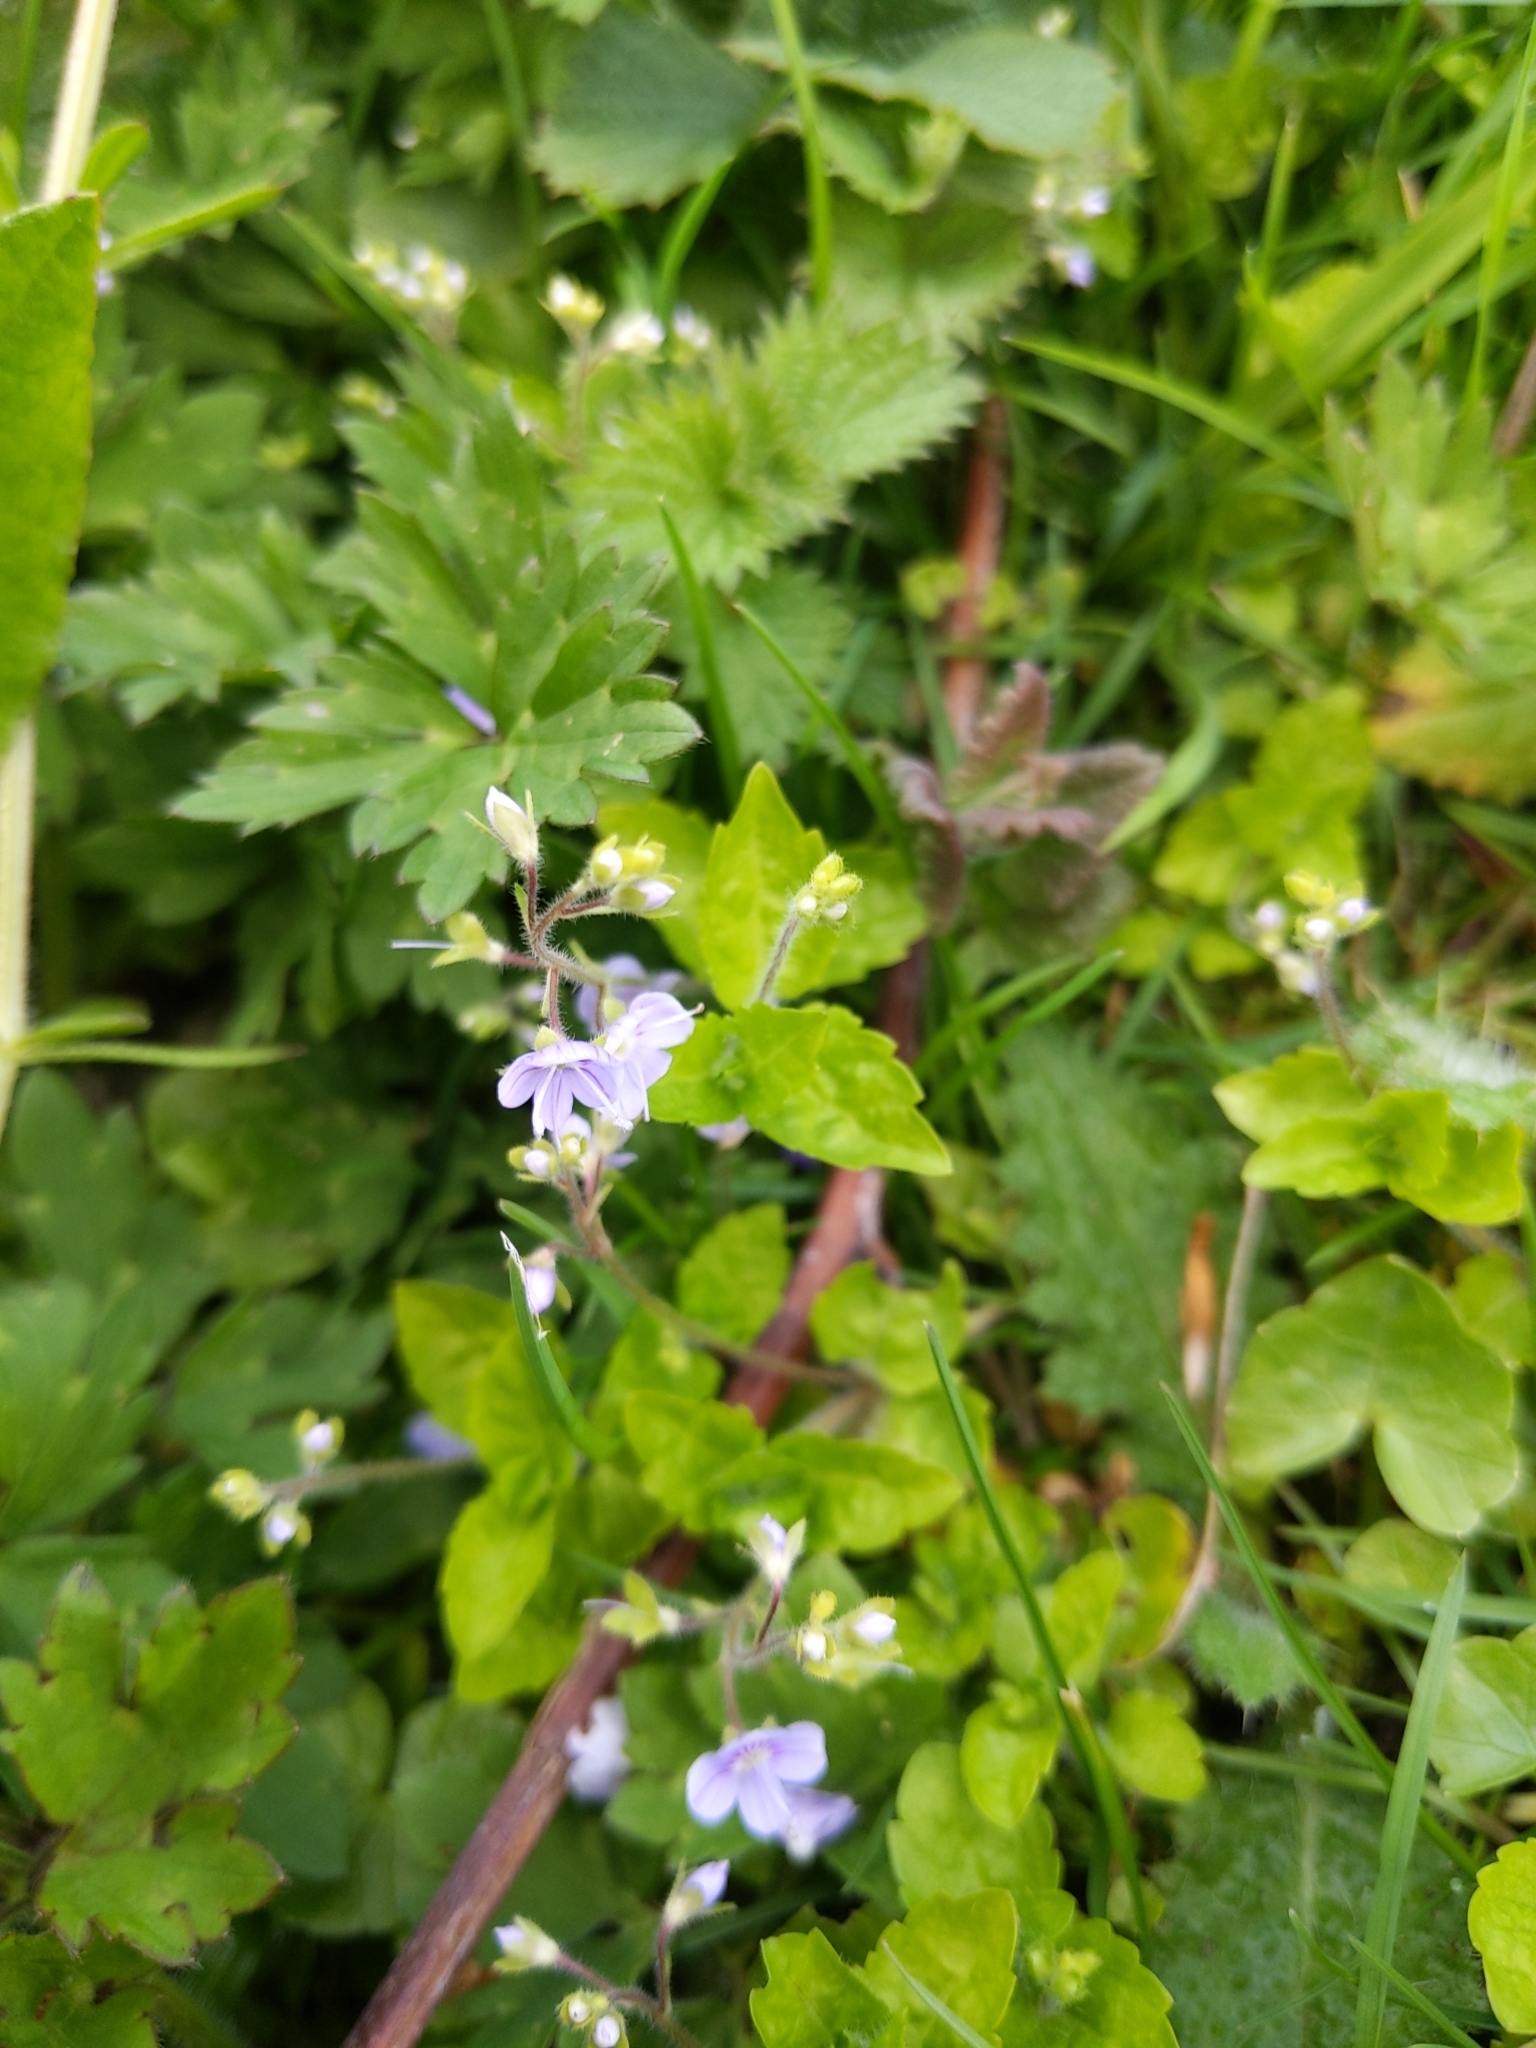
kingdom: Plantae
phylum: Tracheophyta
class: Magnoliopsida
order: Lamiales
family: Plantaginaceae
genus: Veronica
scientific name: Veronica montana
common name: Wood speedwell
